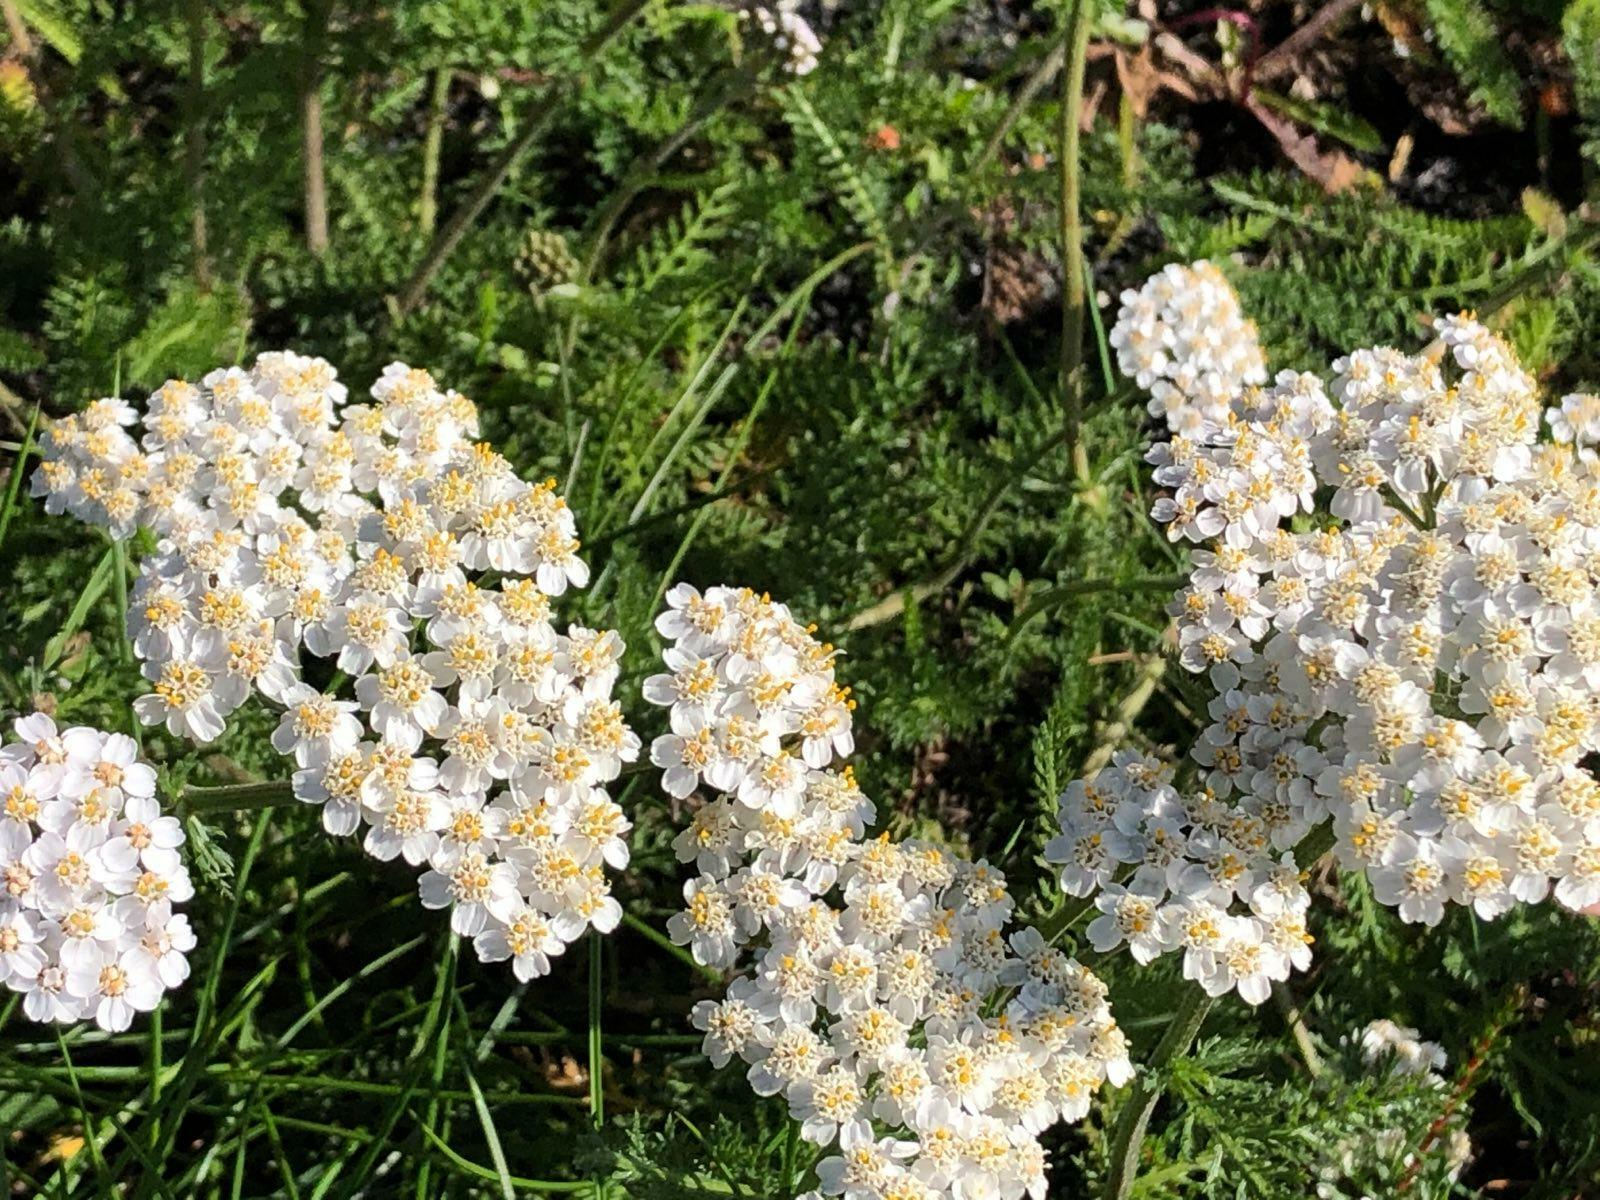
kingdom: Plantae
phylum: Tracheophyta
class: Magnoliopsida
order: Asterales
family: Asteraceae
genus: Achillea
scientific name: Achillea millefolium
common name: Yarrow
